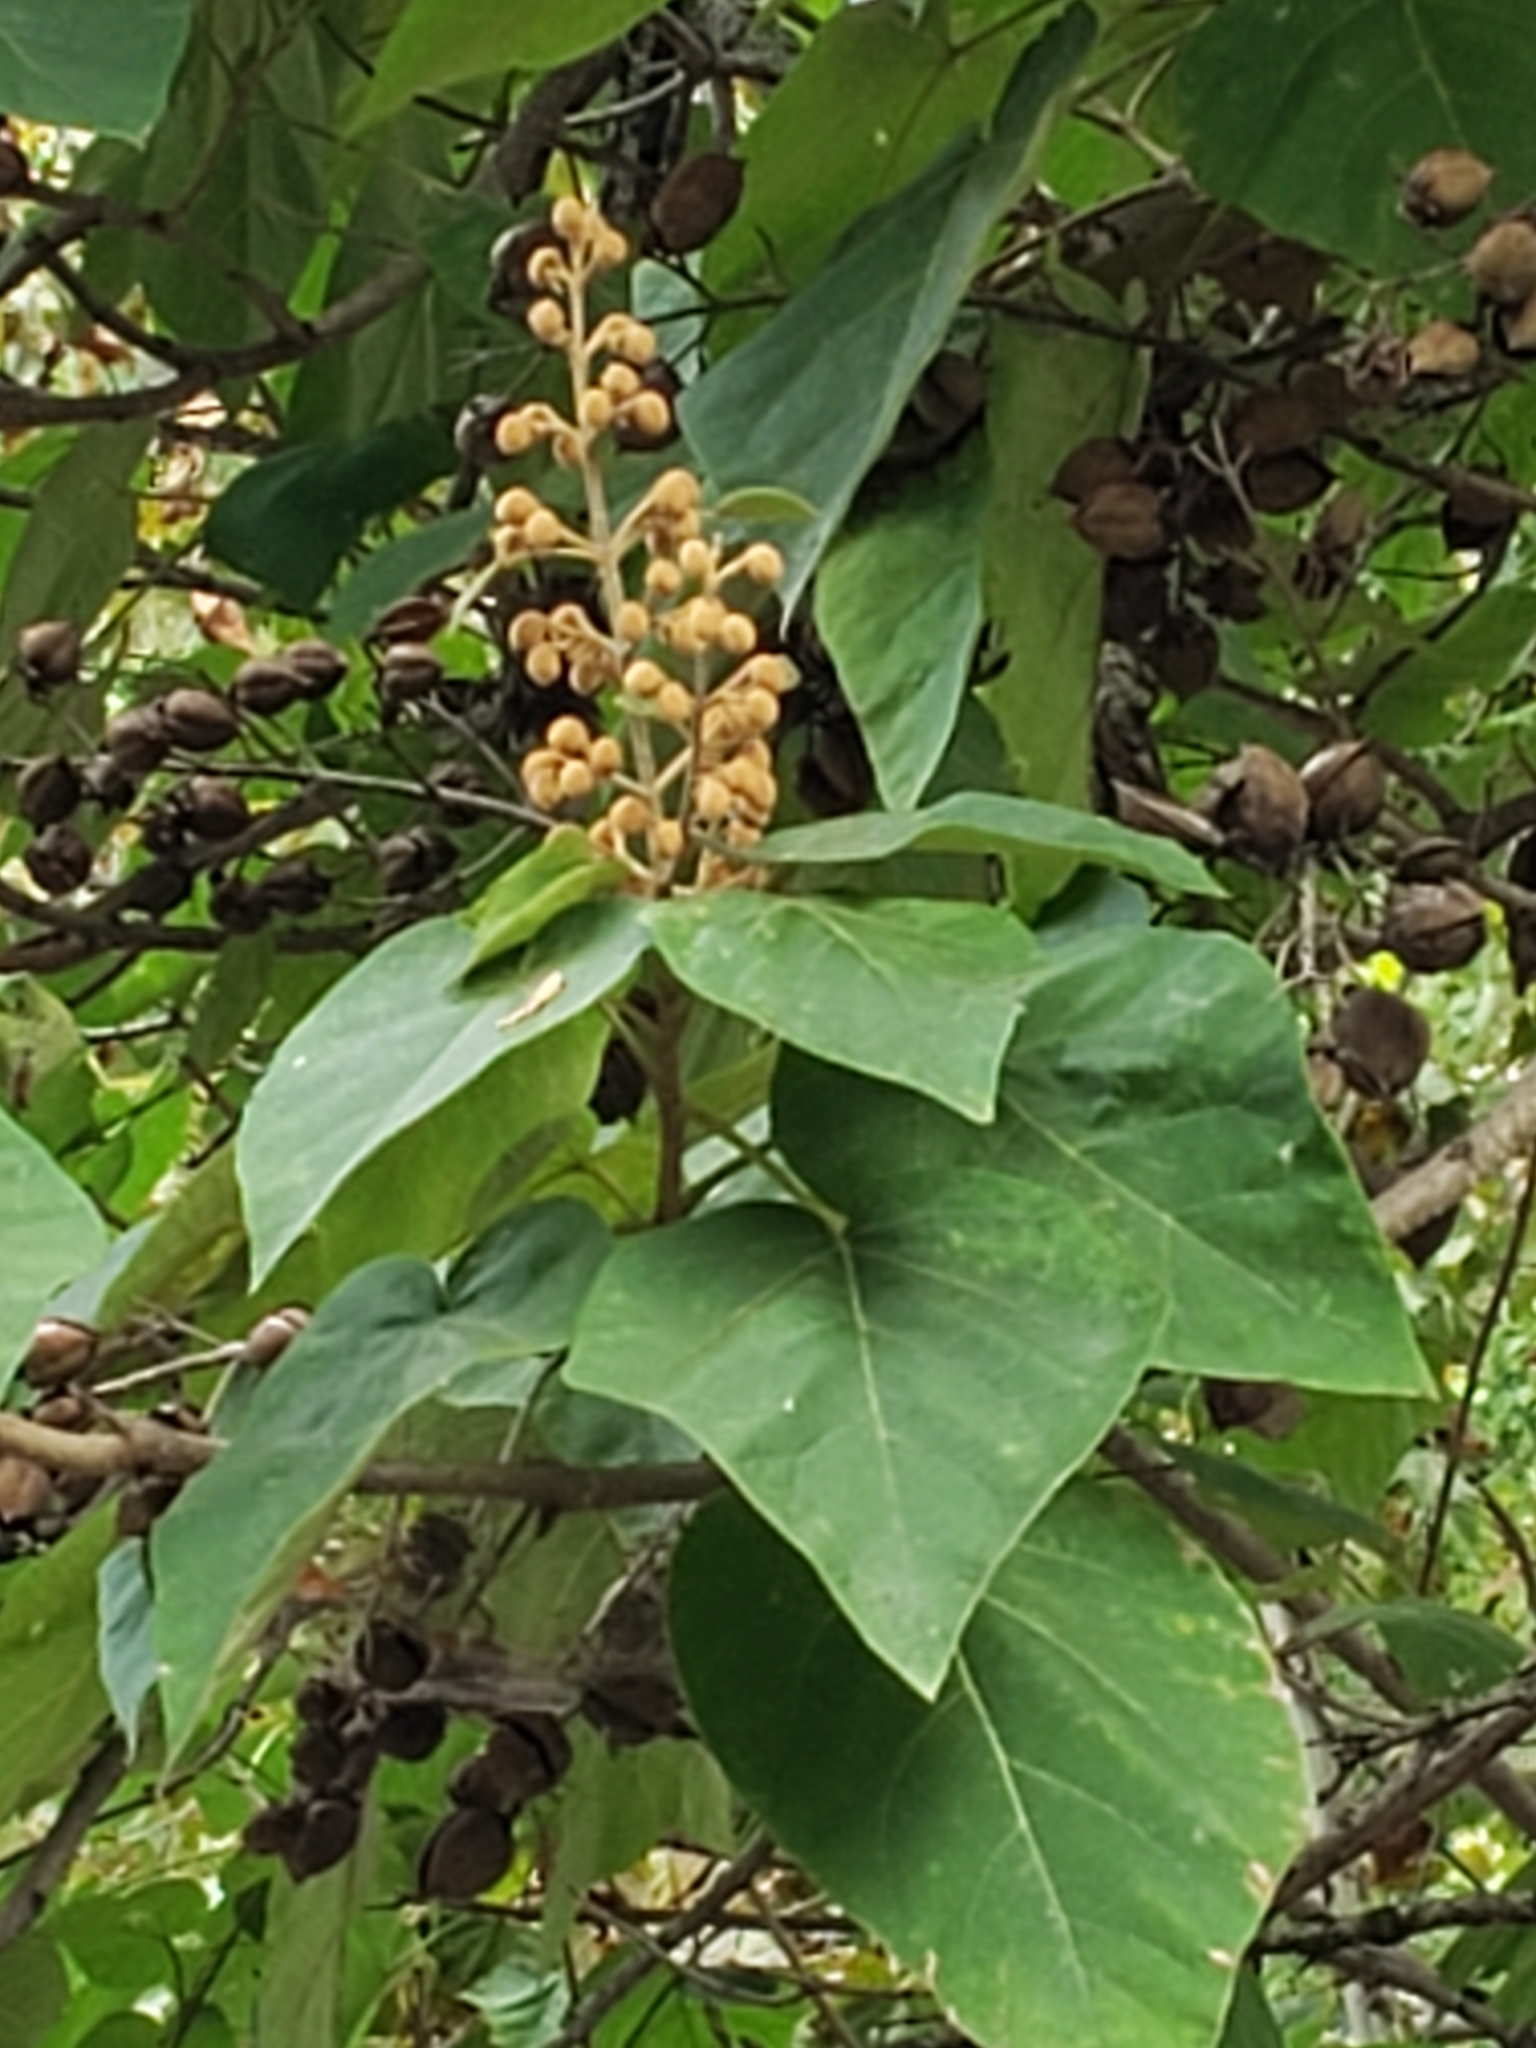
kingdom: Plantae
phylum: Tracheophyta
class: Magnoliopsida
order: Lamiales
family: Paulowniaceae
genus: Paulownia
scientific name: Paulownia tomentosa
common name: Foxglove-tree
